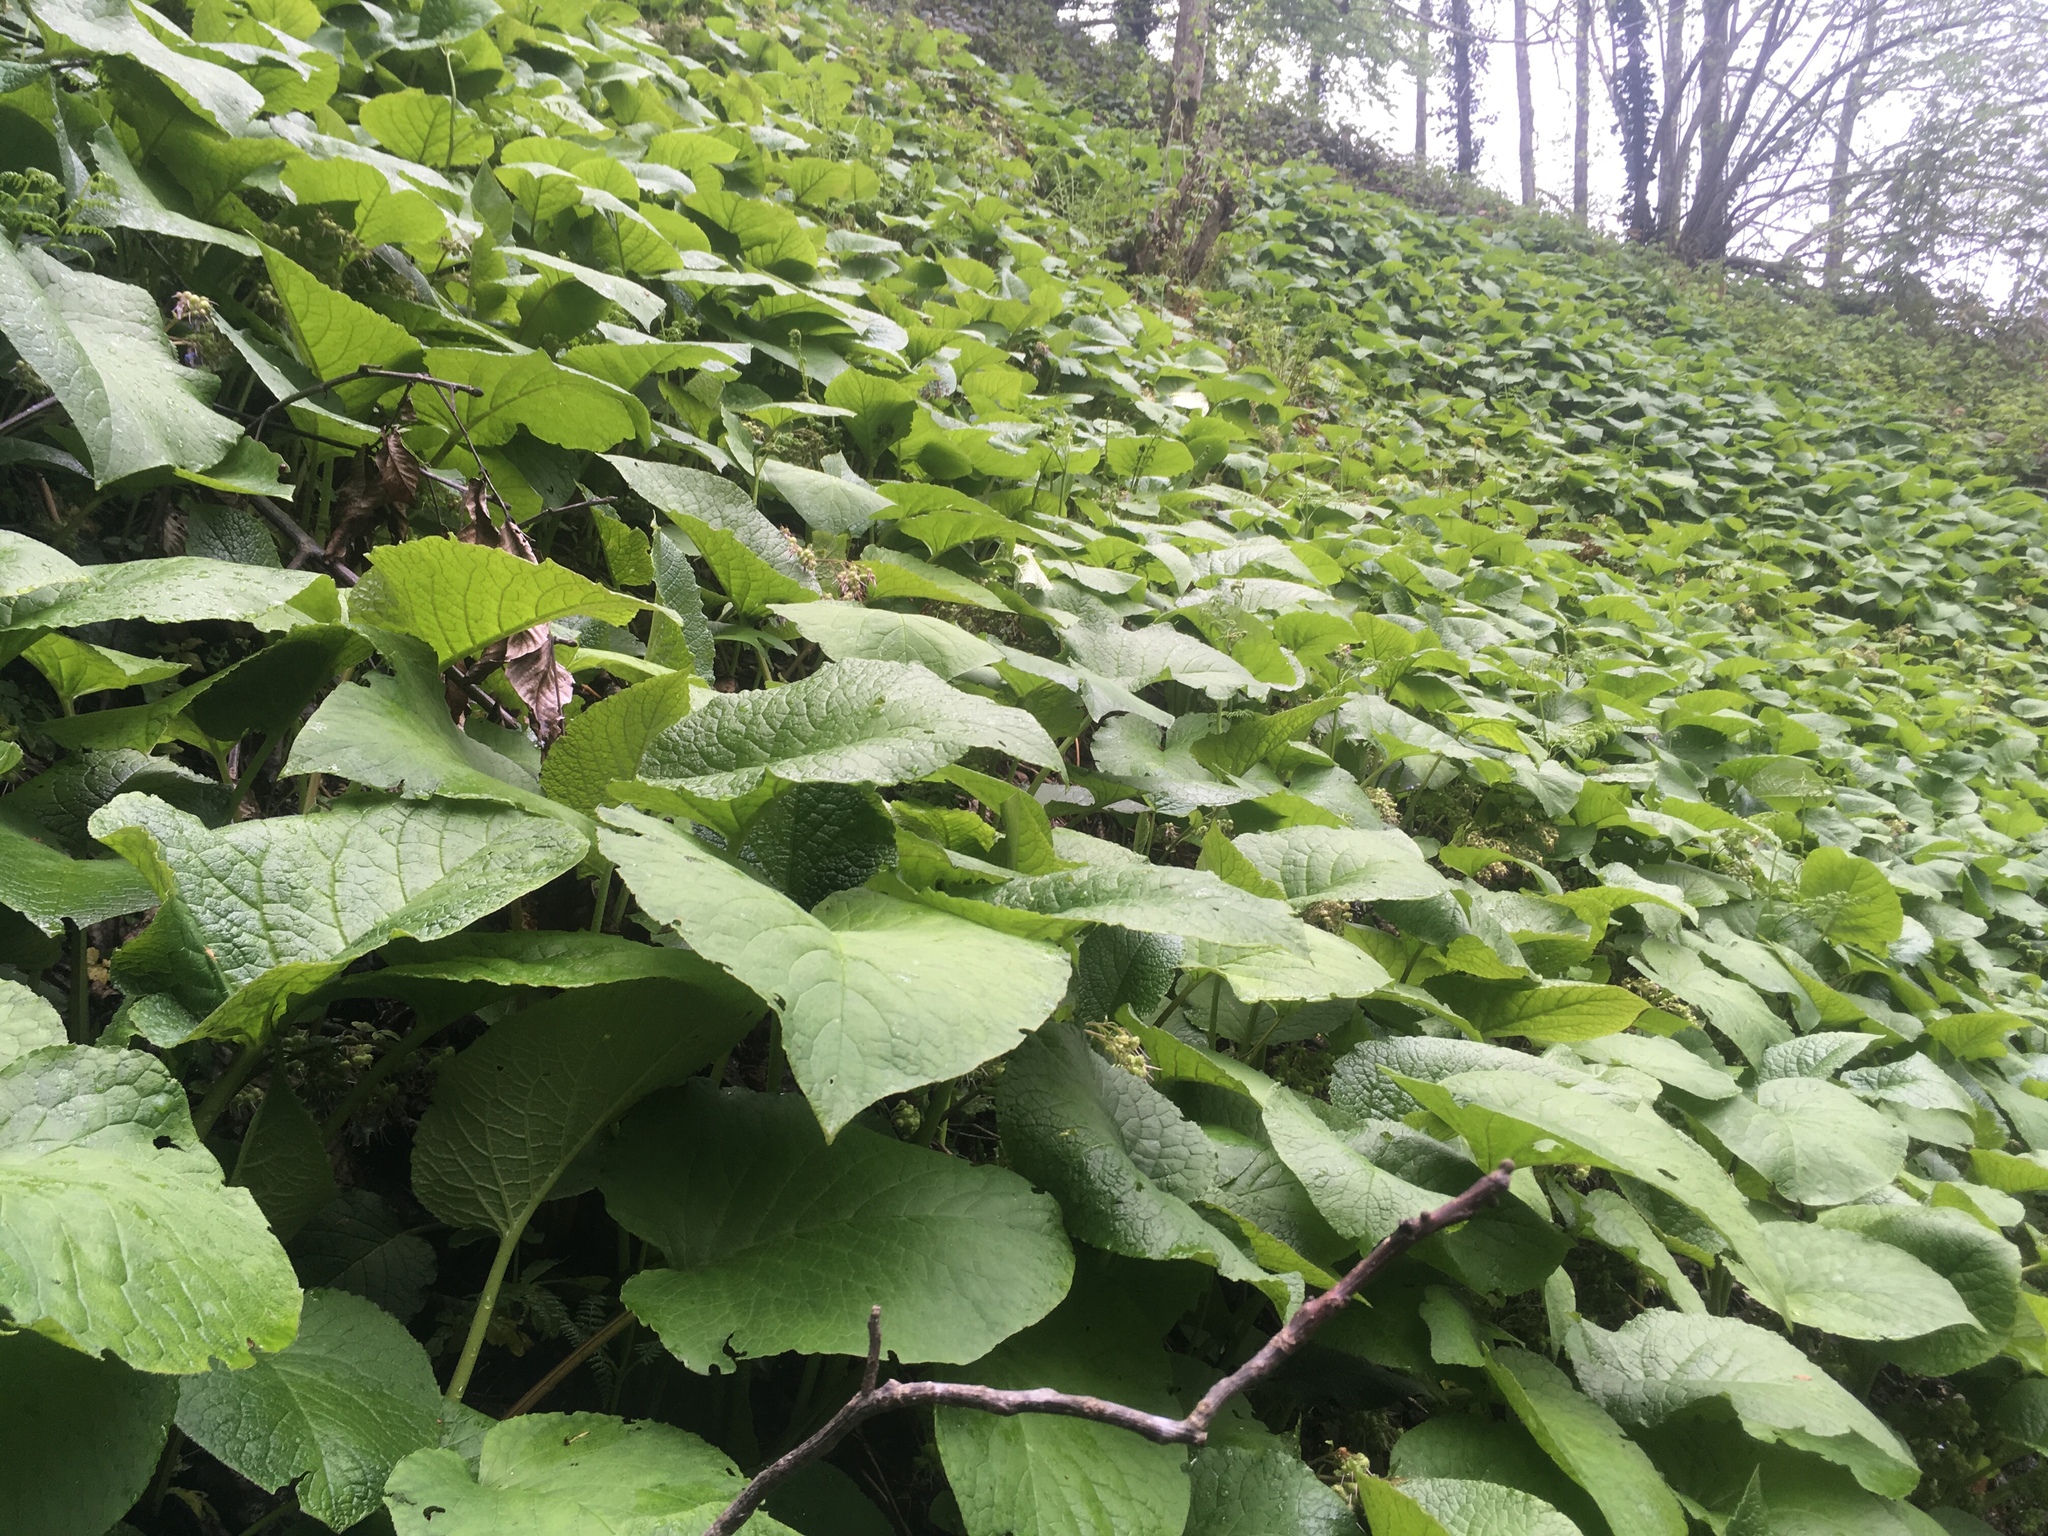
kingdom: Plantae
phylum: Tracheophyta
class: Magnoliopsida
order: Boraginales
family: Boraginaceae
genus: Trachystemon
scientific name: Trachystemon orientale
